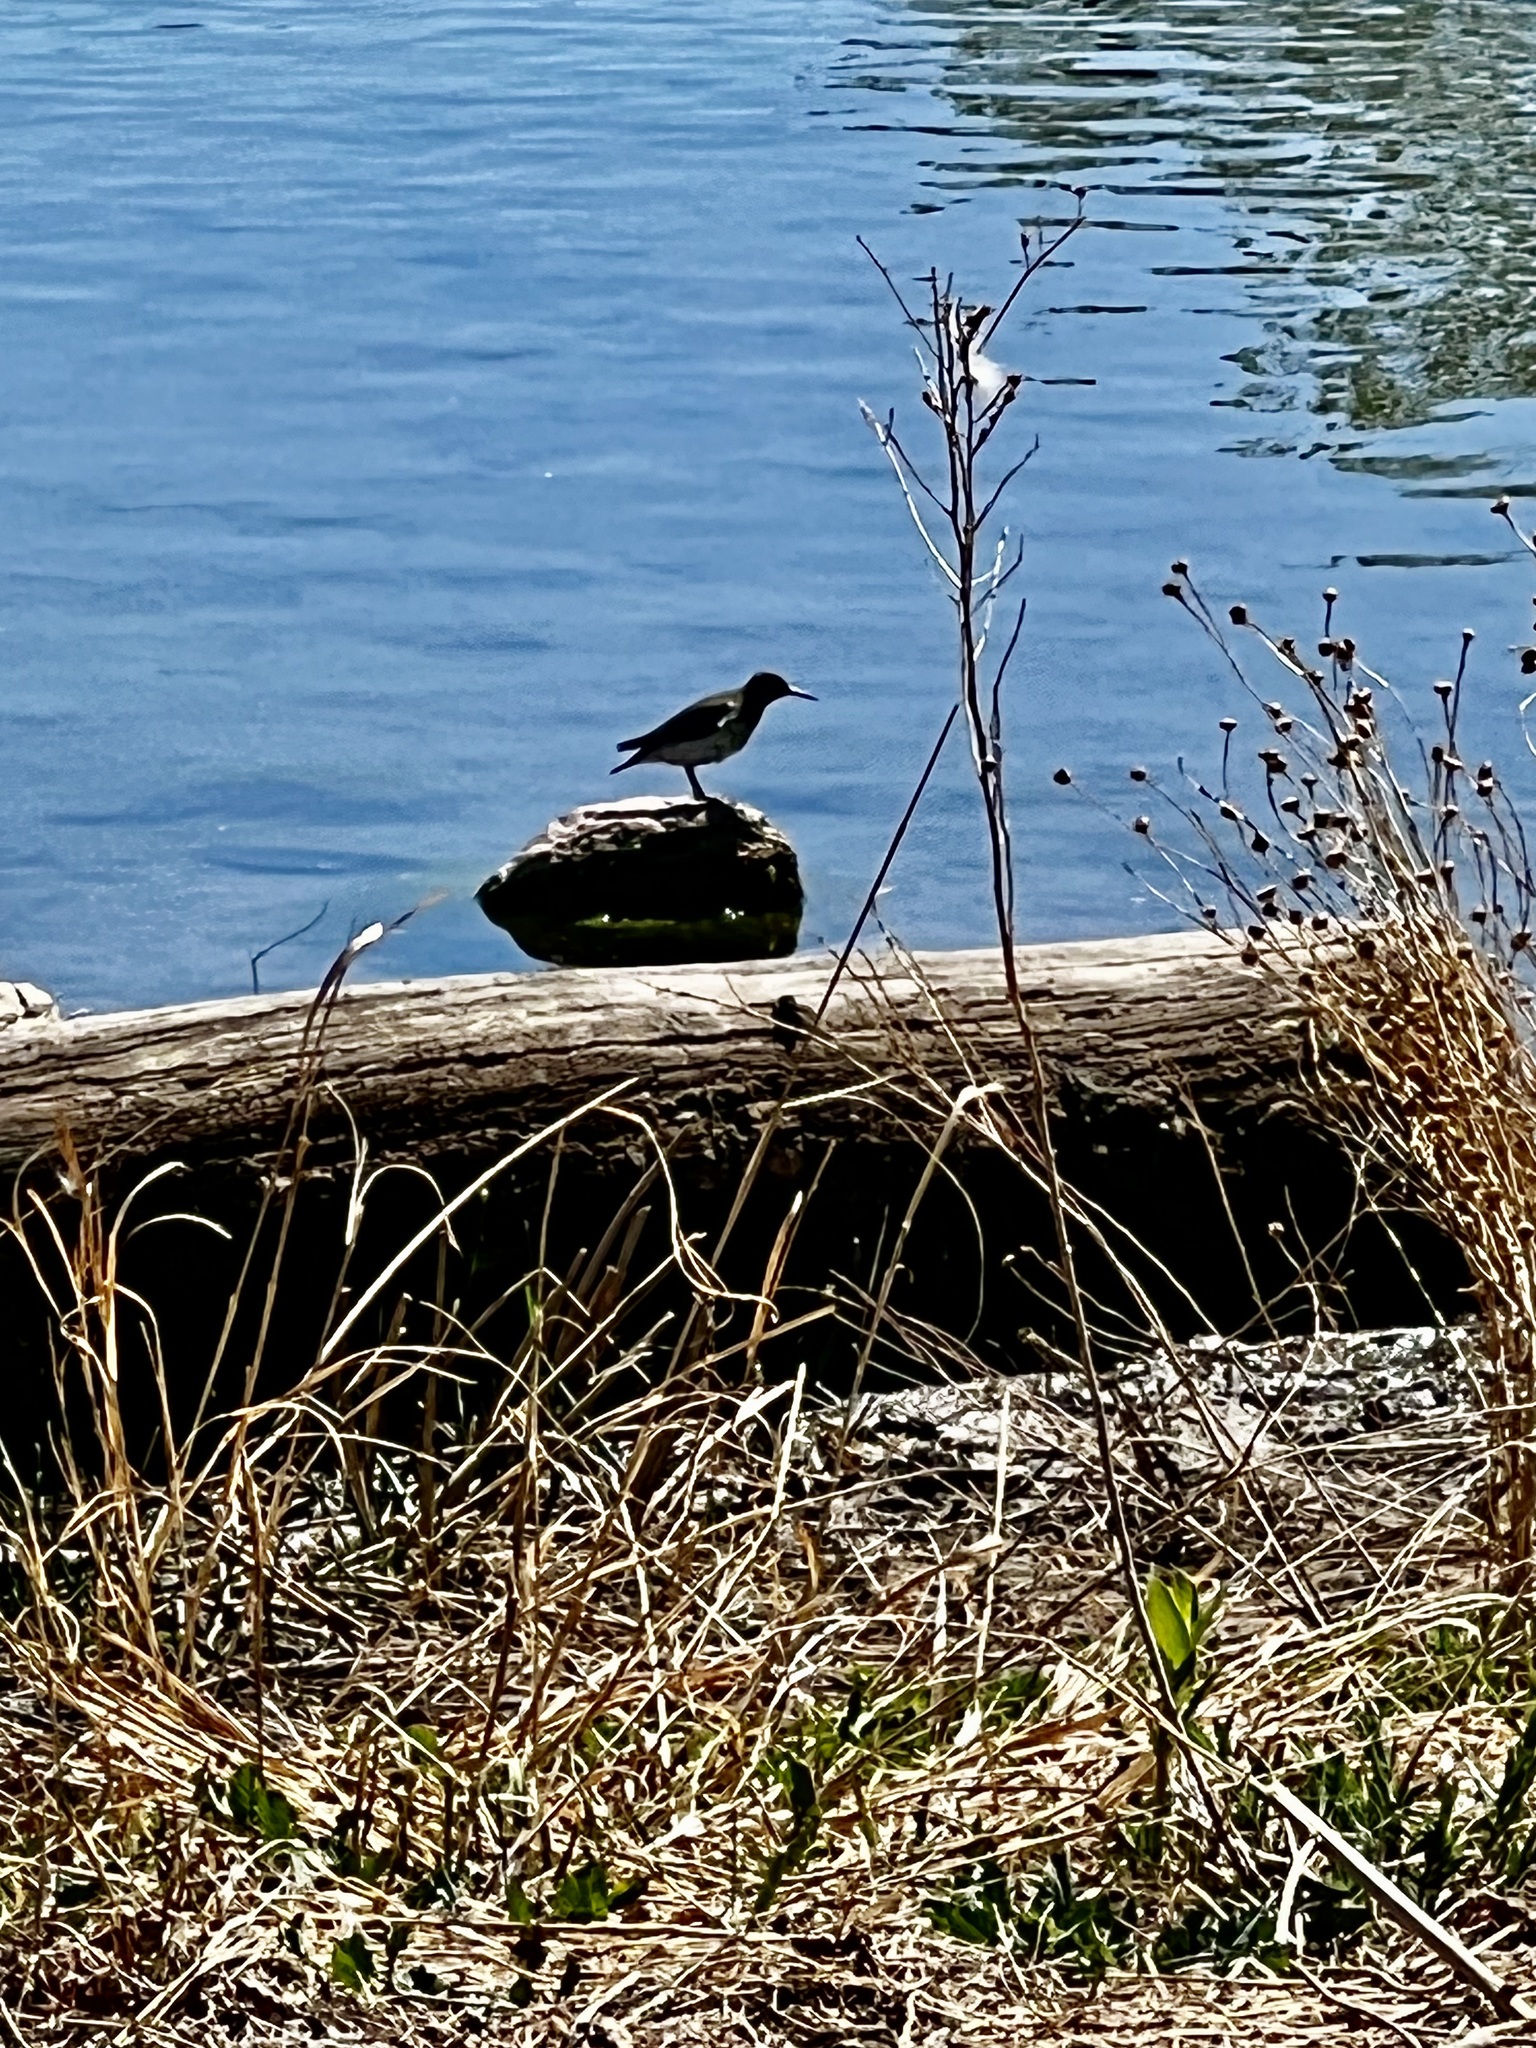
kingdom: Animalia
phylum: Chordata
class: Aves
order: Charadriiformes
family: Scolopacidae
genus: Actitis
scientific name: Actitis macularius
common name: Spotted sandpiper
